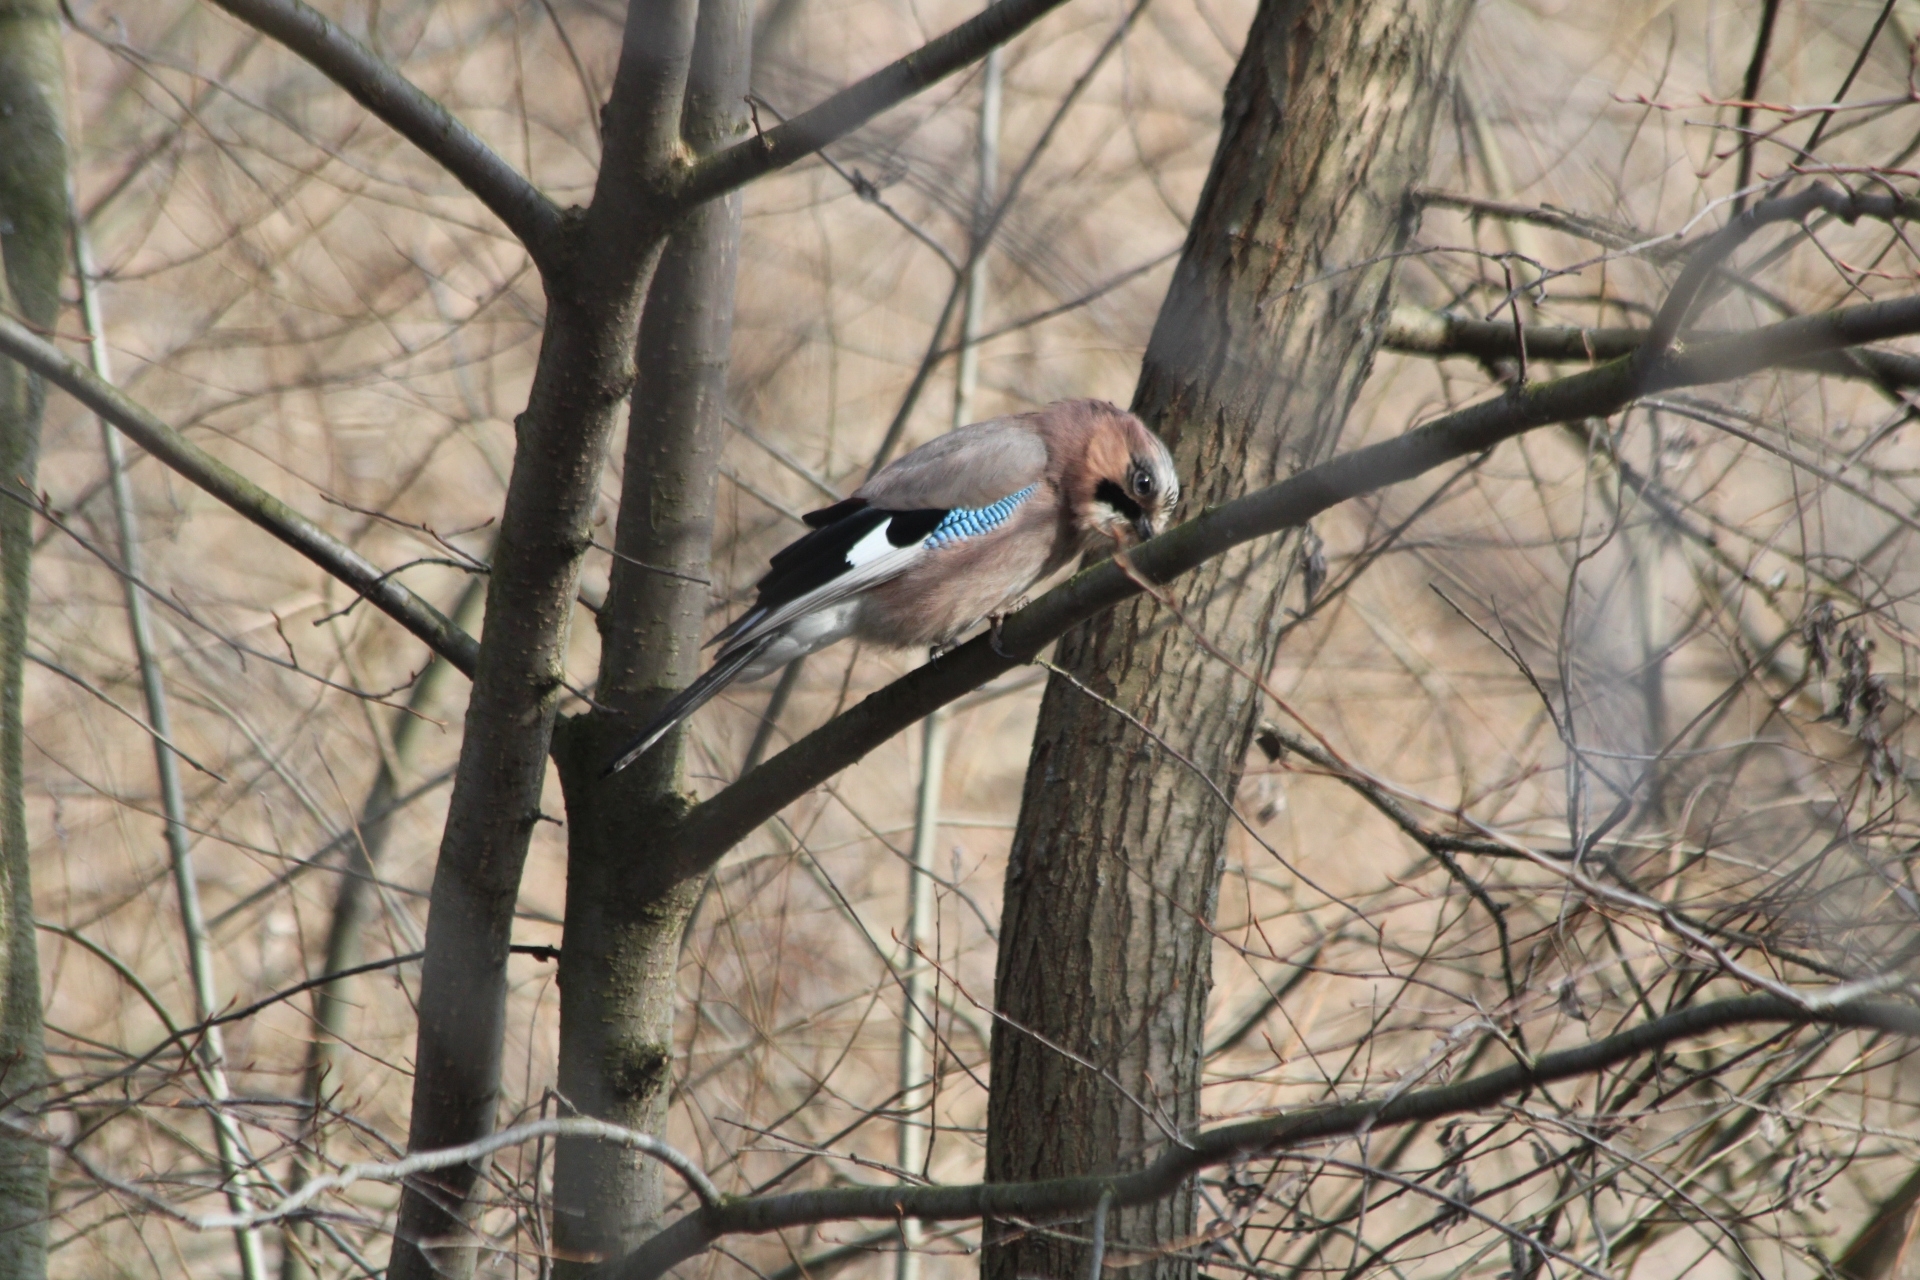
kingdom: Animalia
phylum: Chordata
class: Aves
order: Passeriformes
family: Corvidae
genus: Garrulus
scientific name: Garrulus glandarius
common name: Eurasian jay
